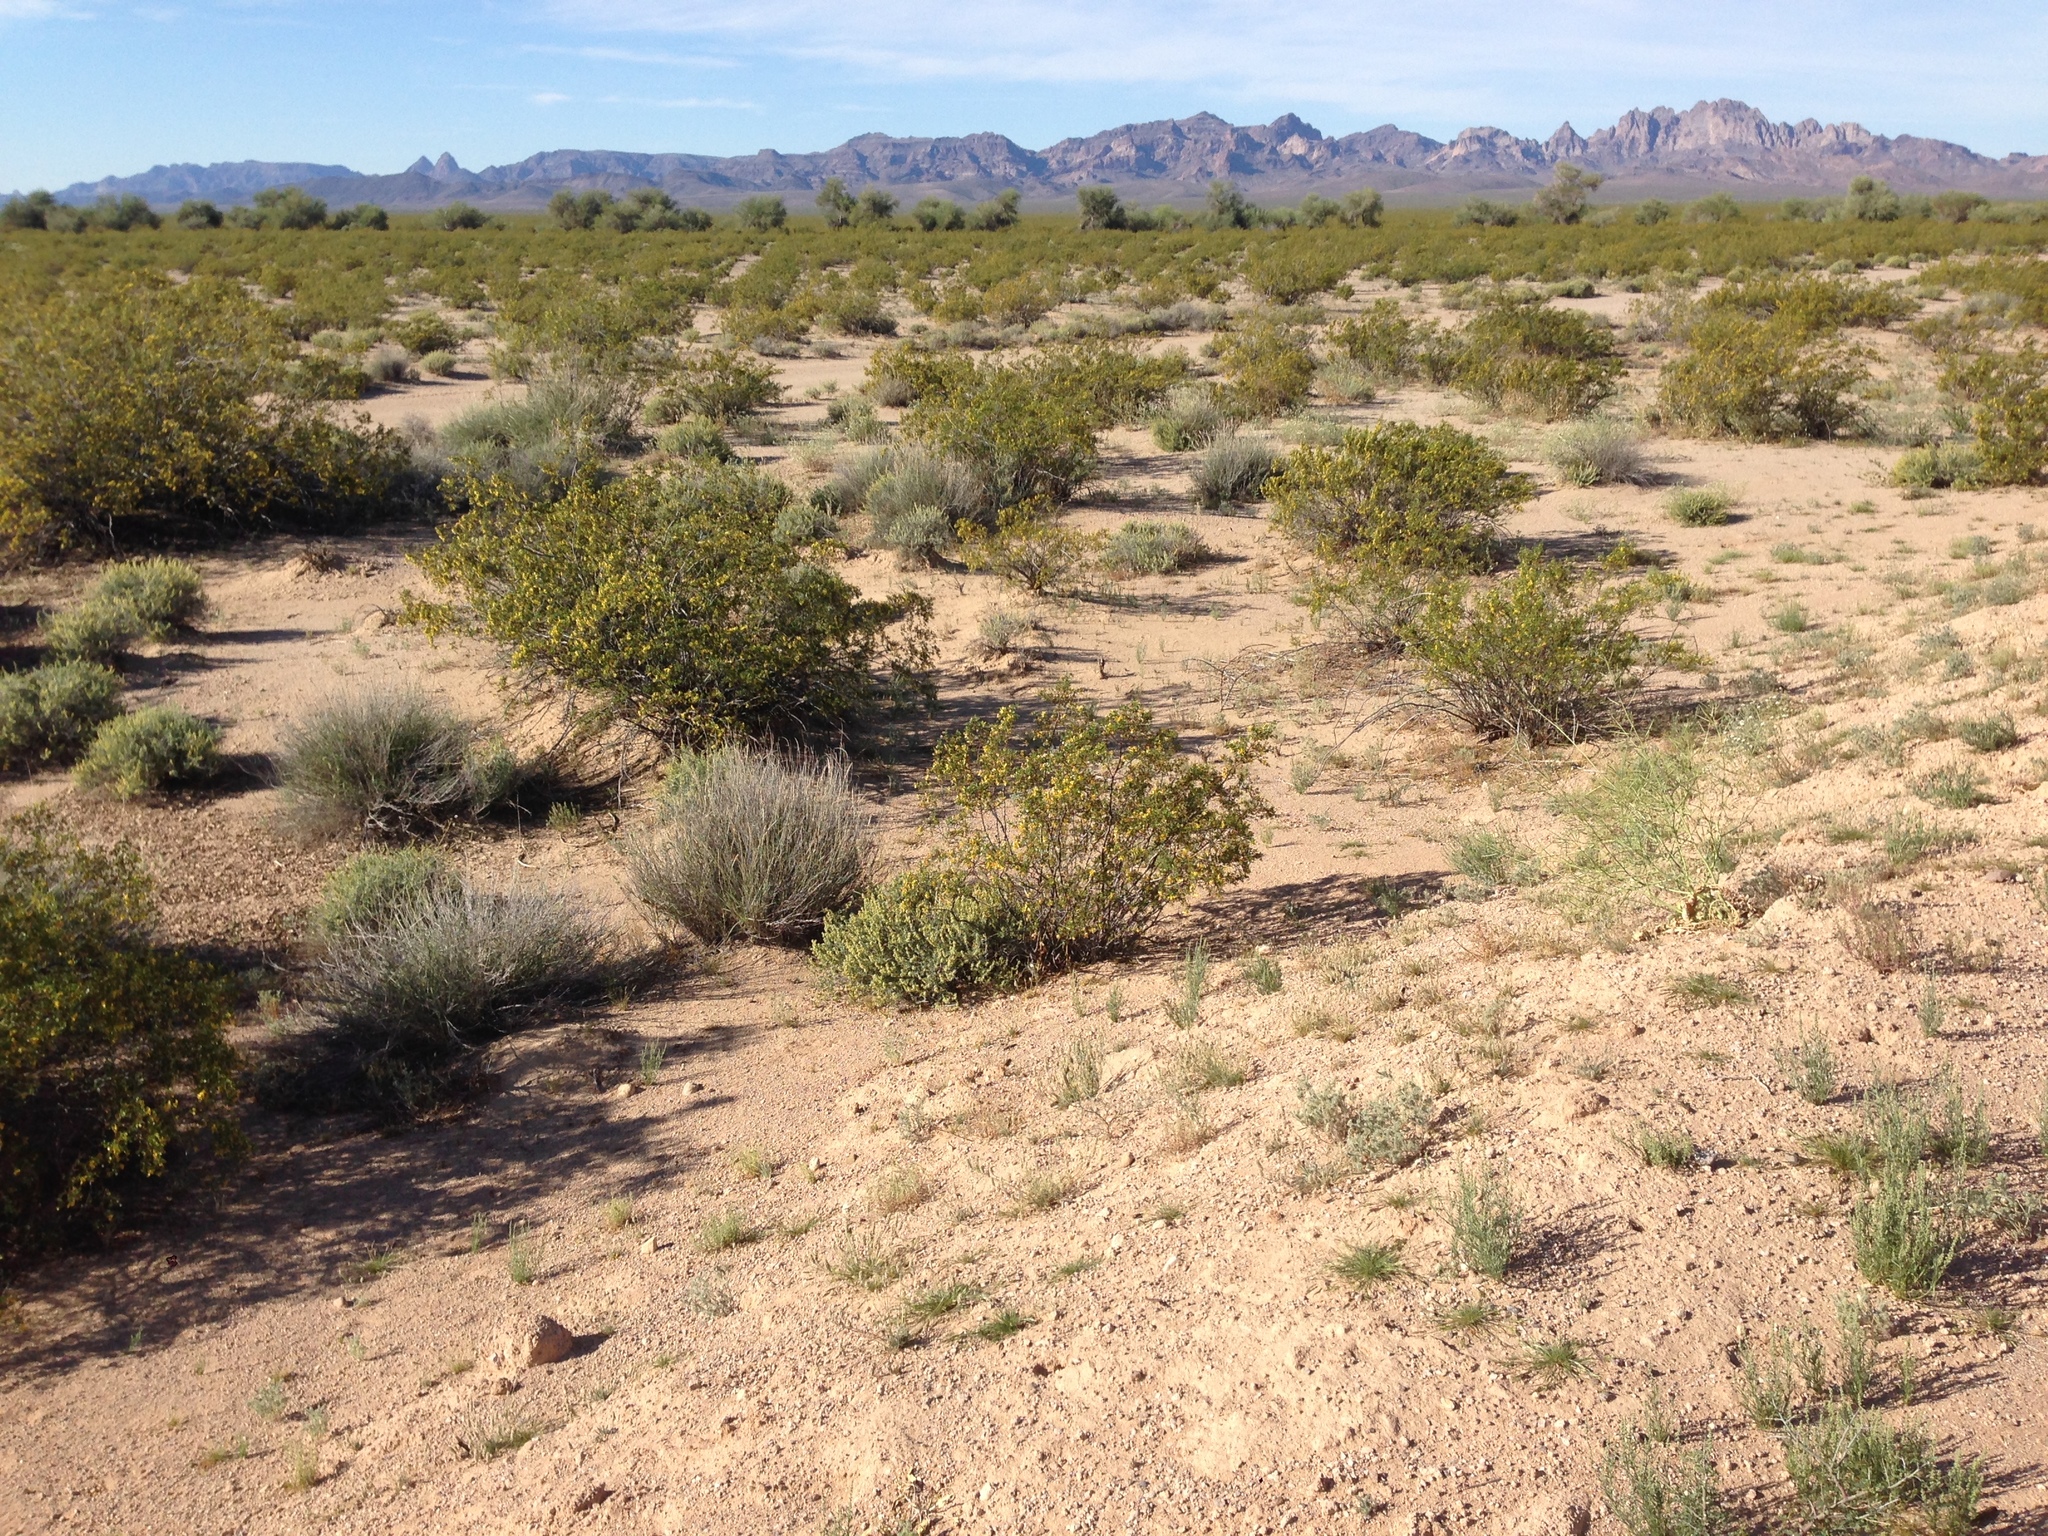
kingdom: Plantae
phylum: Tracheophyta
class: Magnoliopsida
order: Zygophyllales
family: Zygophyllaceae
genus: Larrea
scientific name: Larrea tridentata
